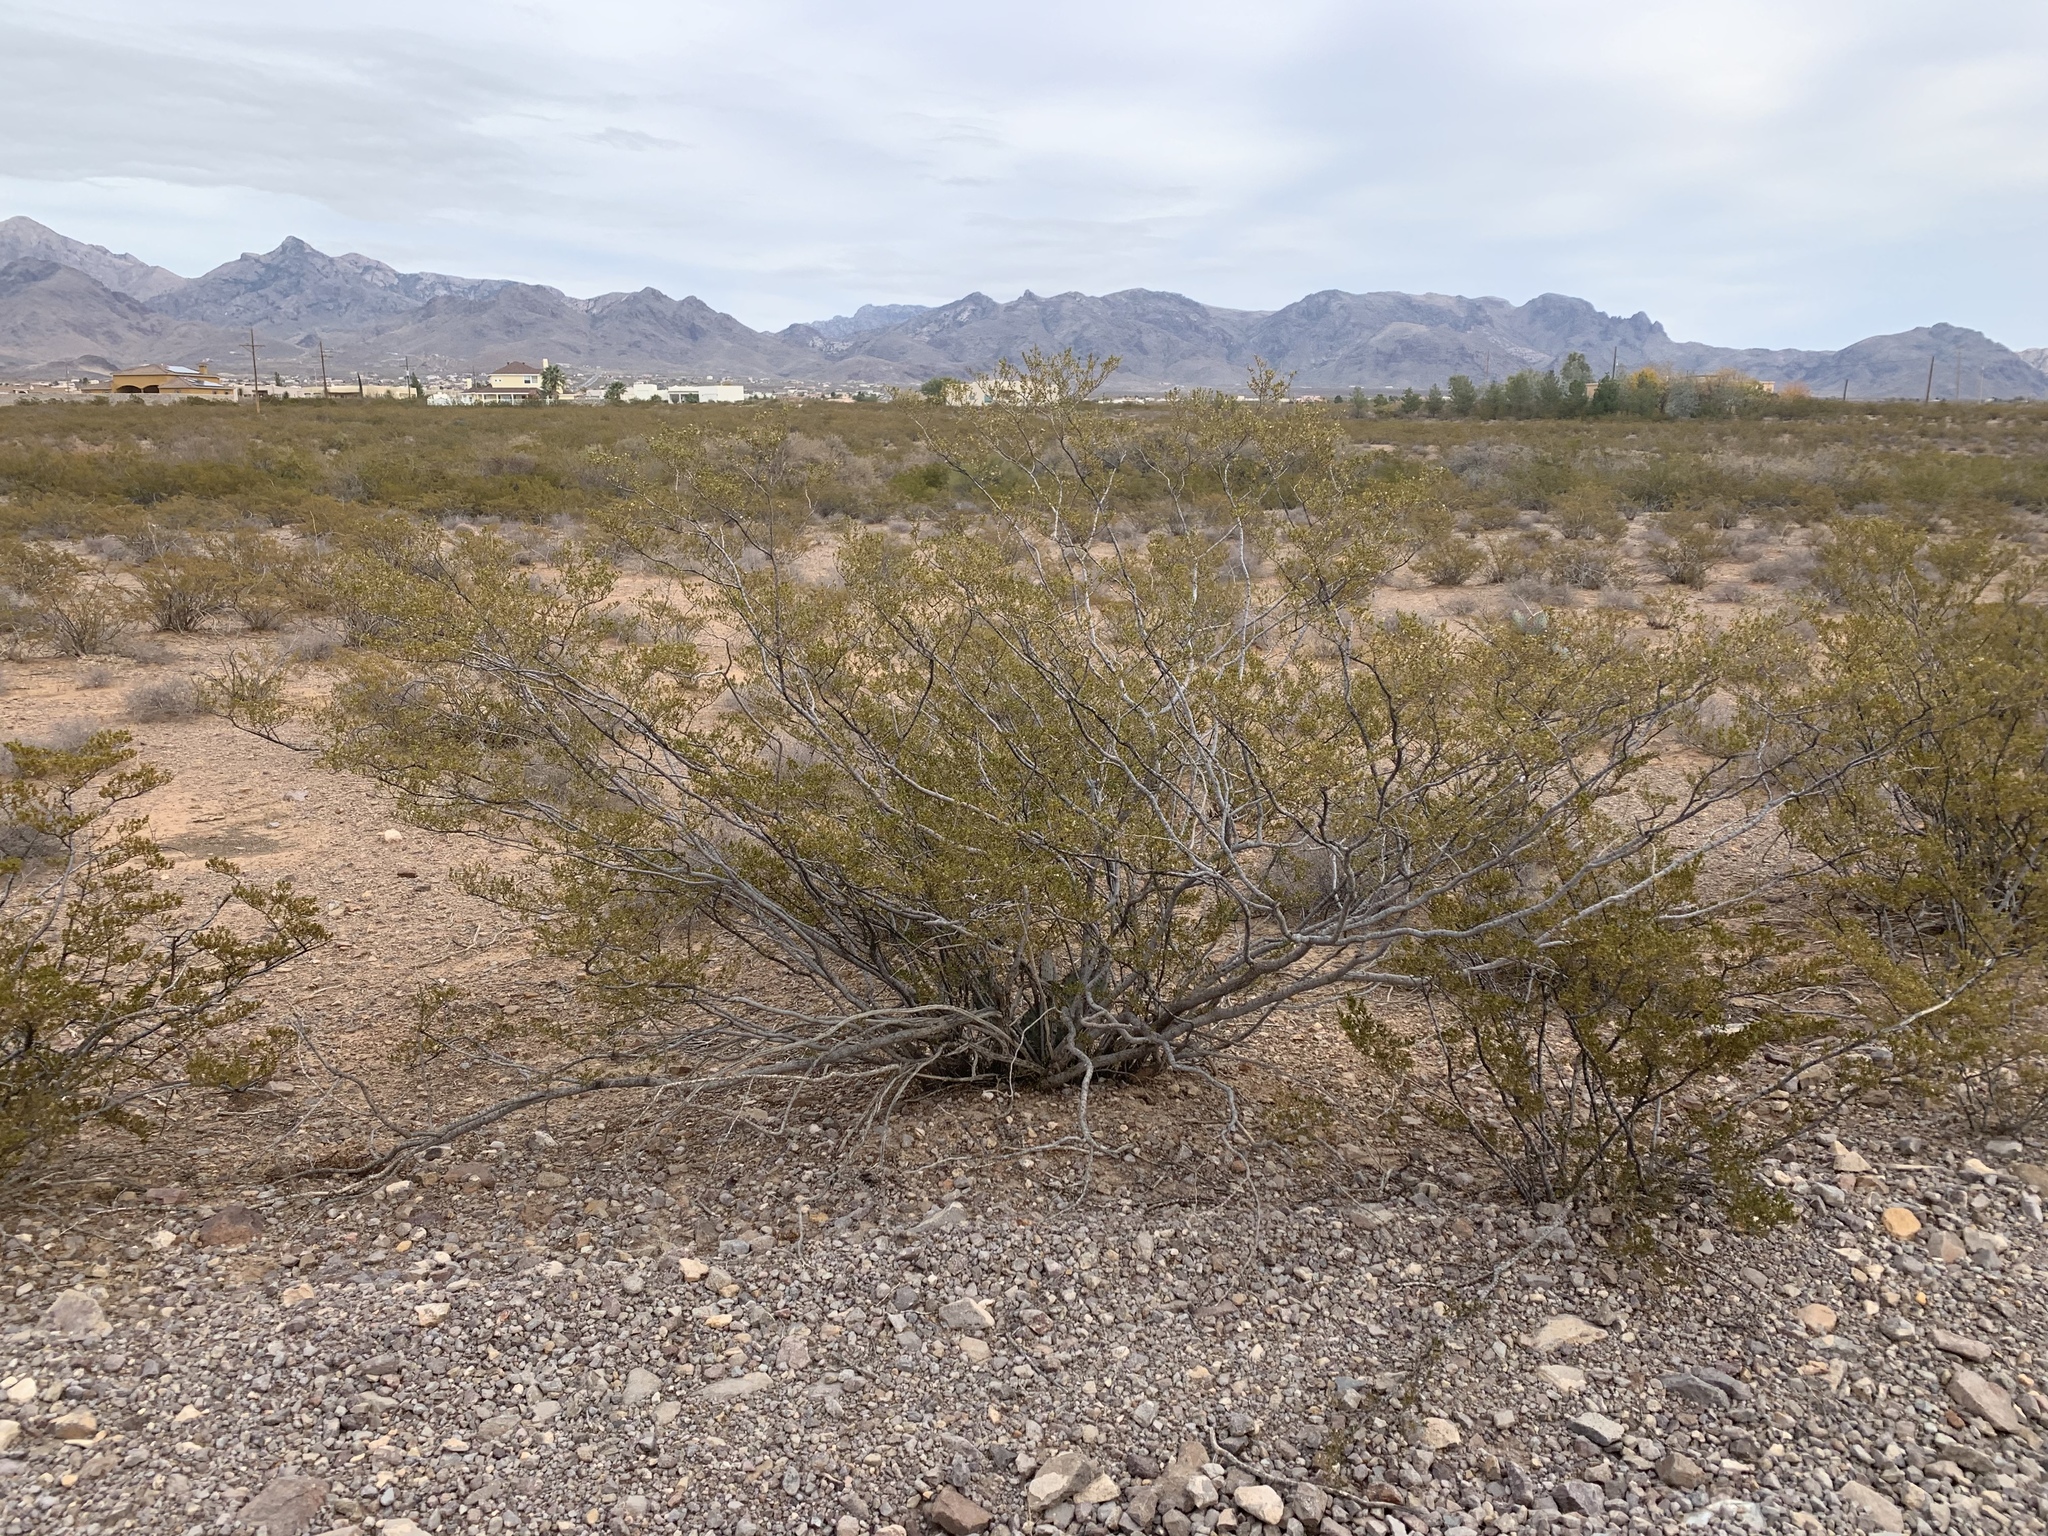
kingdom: Plantae
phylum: Tracheophyta
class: Magnoliopsida
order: Zygophyllales
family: Zygophyllaceae
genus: Larrea
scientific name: Larrea tridentata
